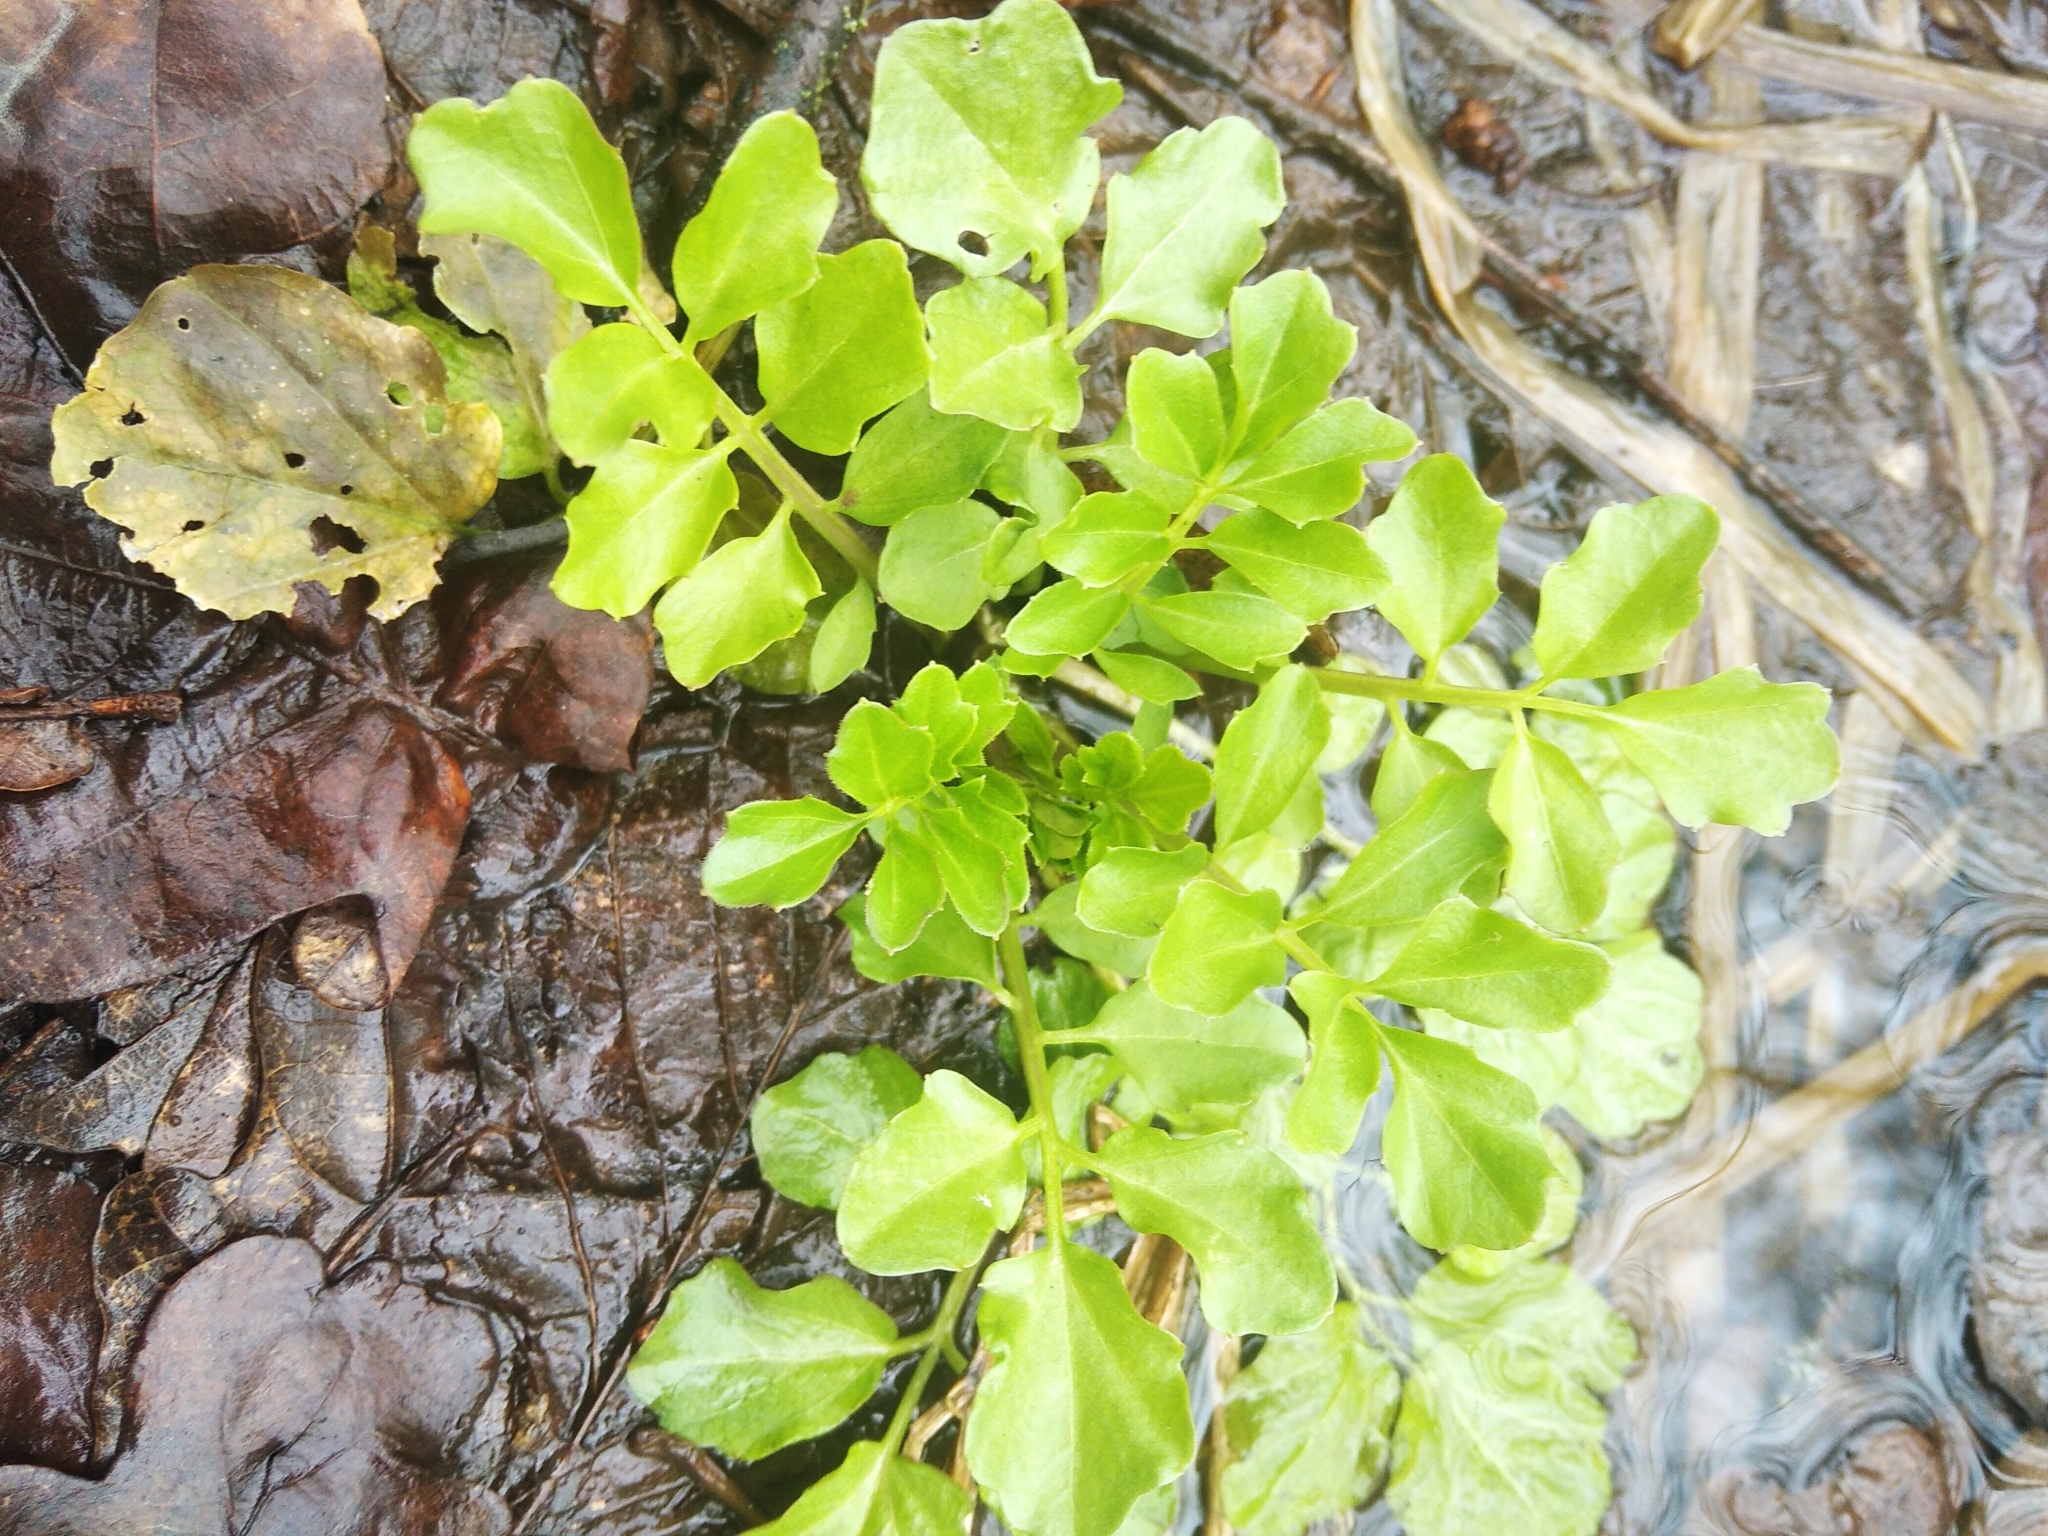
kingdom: Plantae
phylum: Tracheophyta
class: Magnoliopsida
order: Brassicales
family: Brassicaceae
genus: Cardamine
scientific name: Cardamine amara
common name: Large bitter-cress
